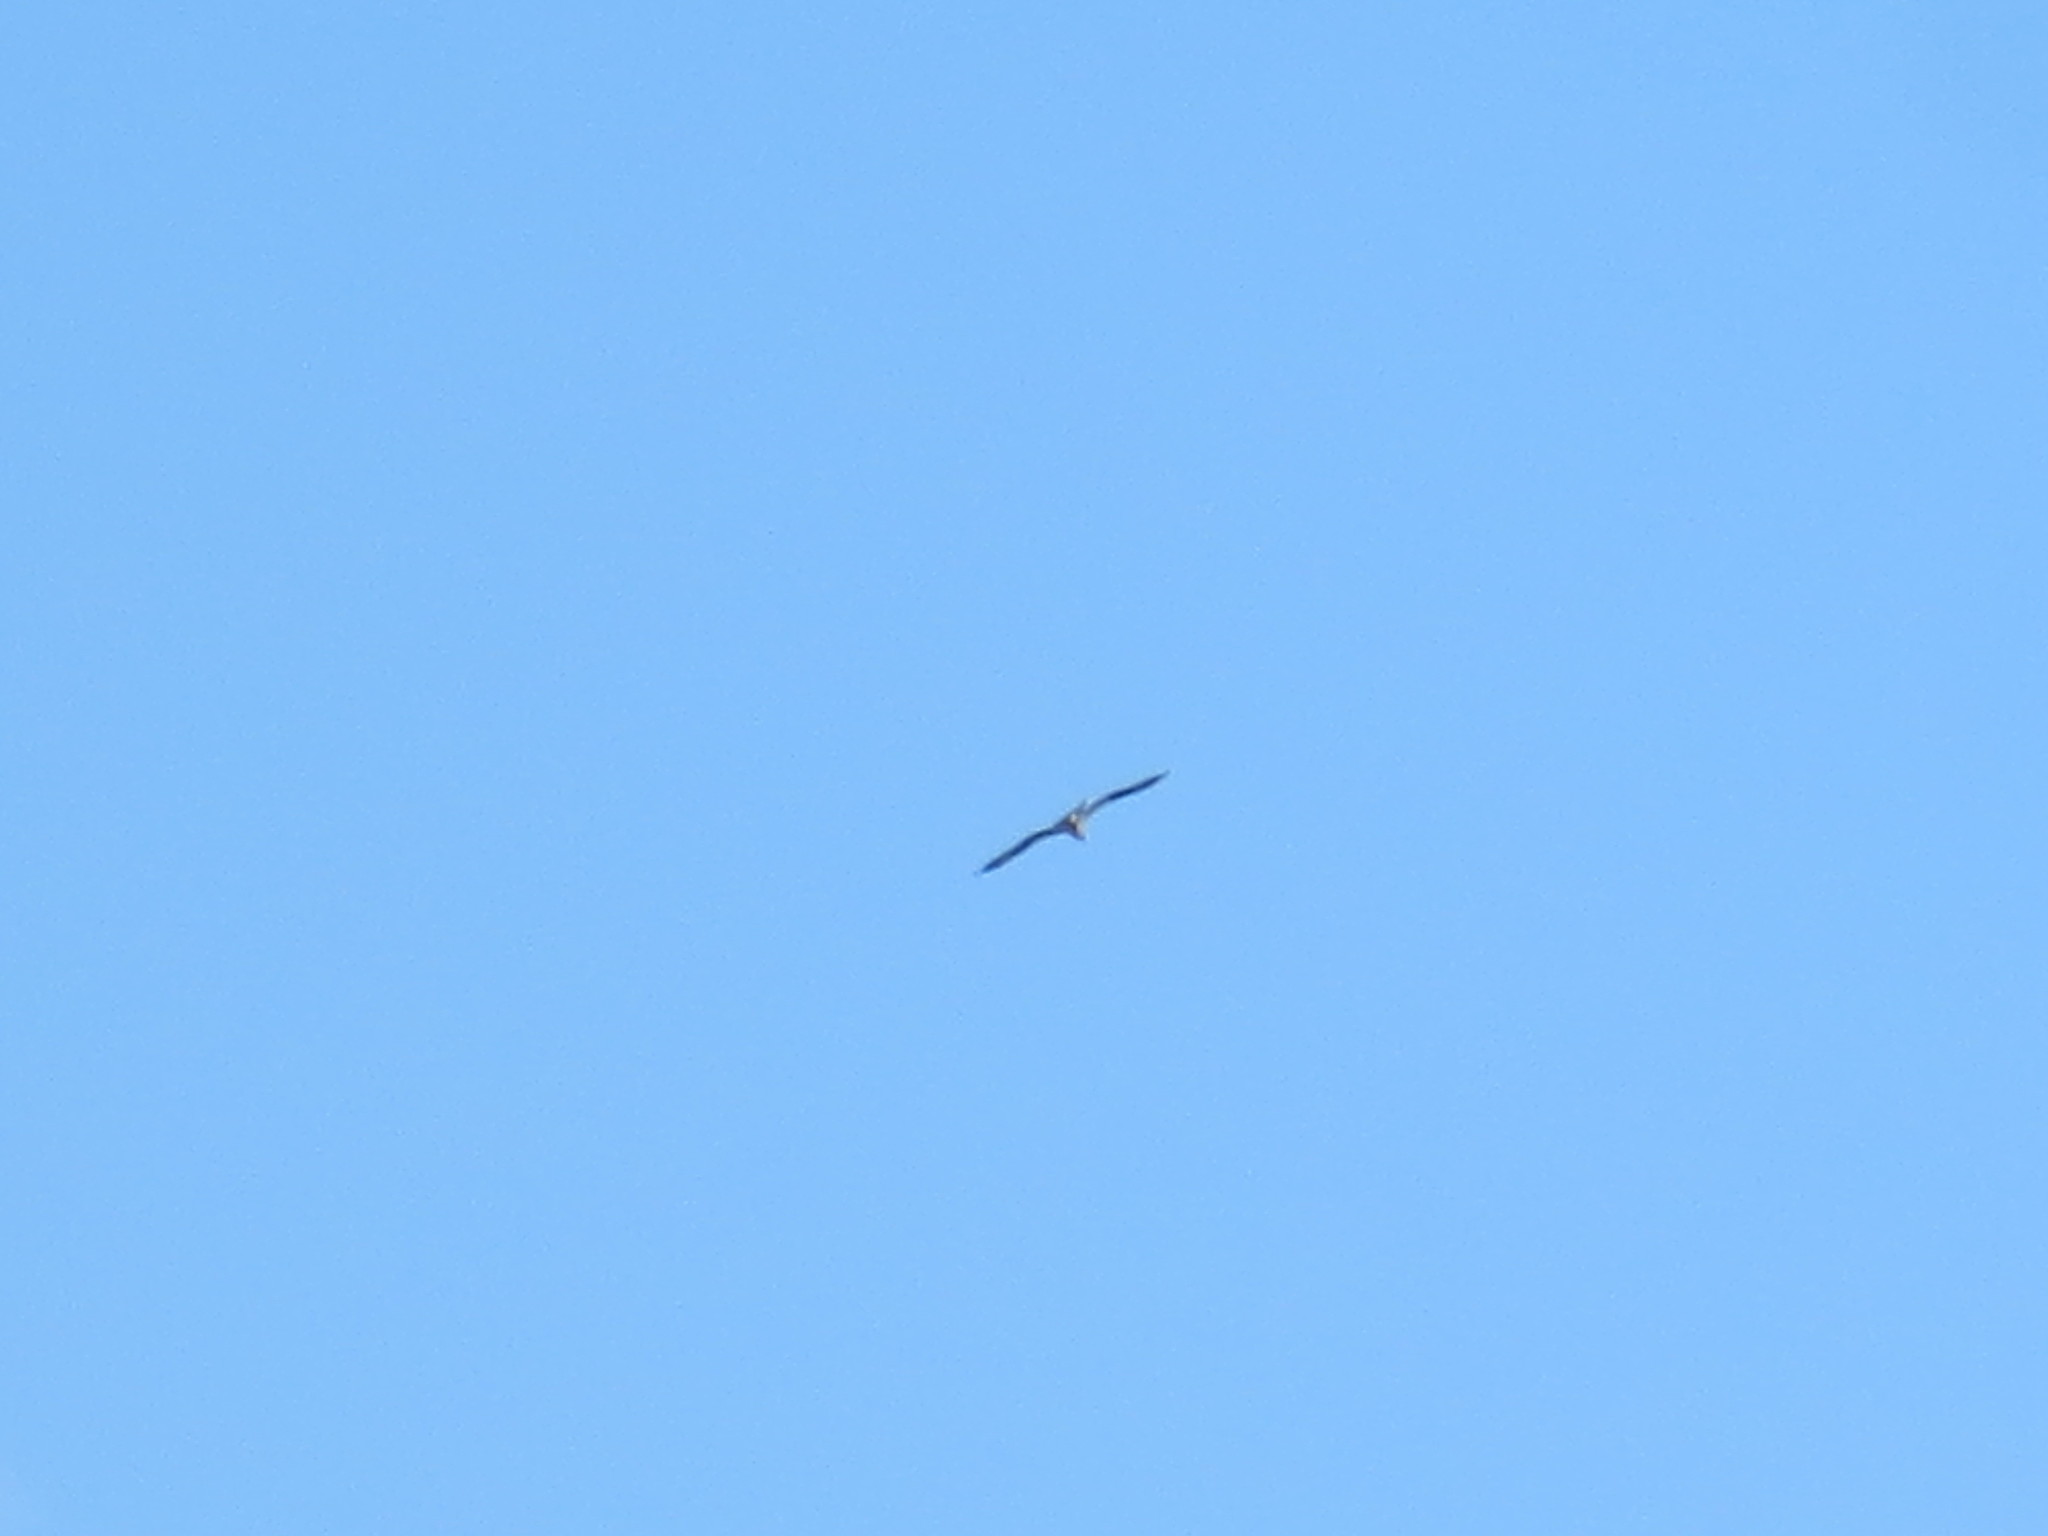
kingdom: Animalia
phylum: Chordata
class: Aves
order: Accipitriformes
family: Pandionidae
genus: Pandion
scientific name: Pandion haliaetus
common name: Osprey
